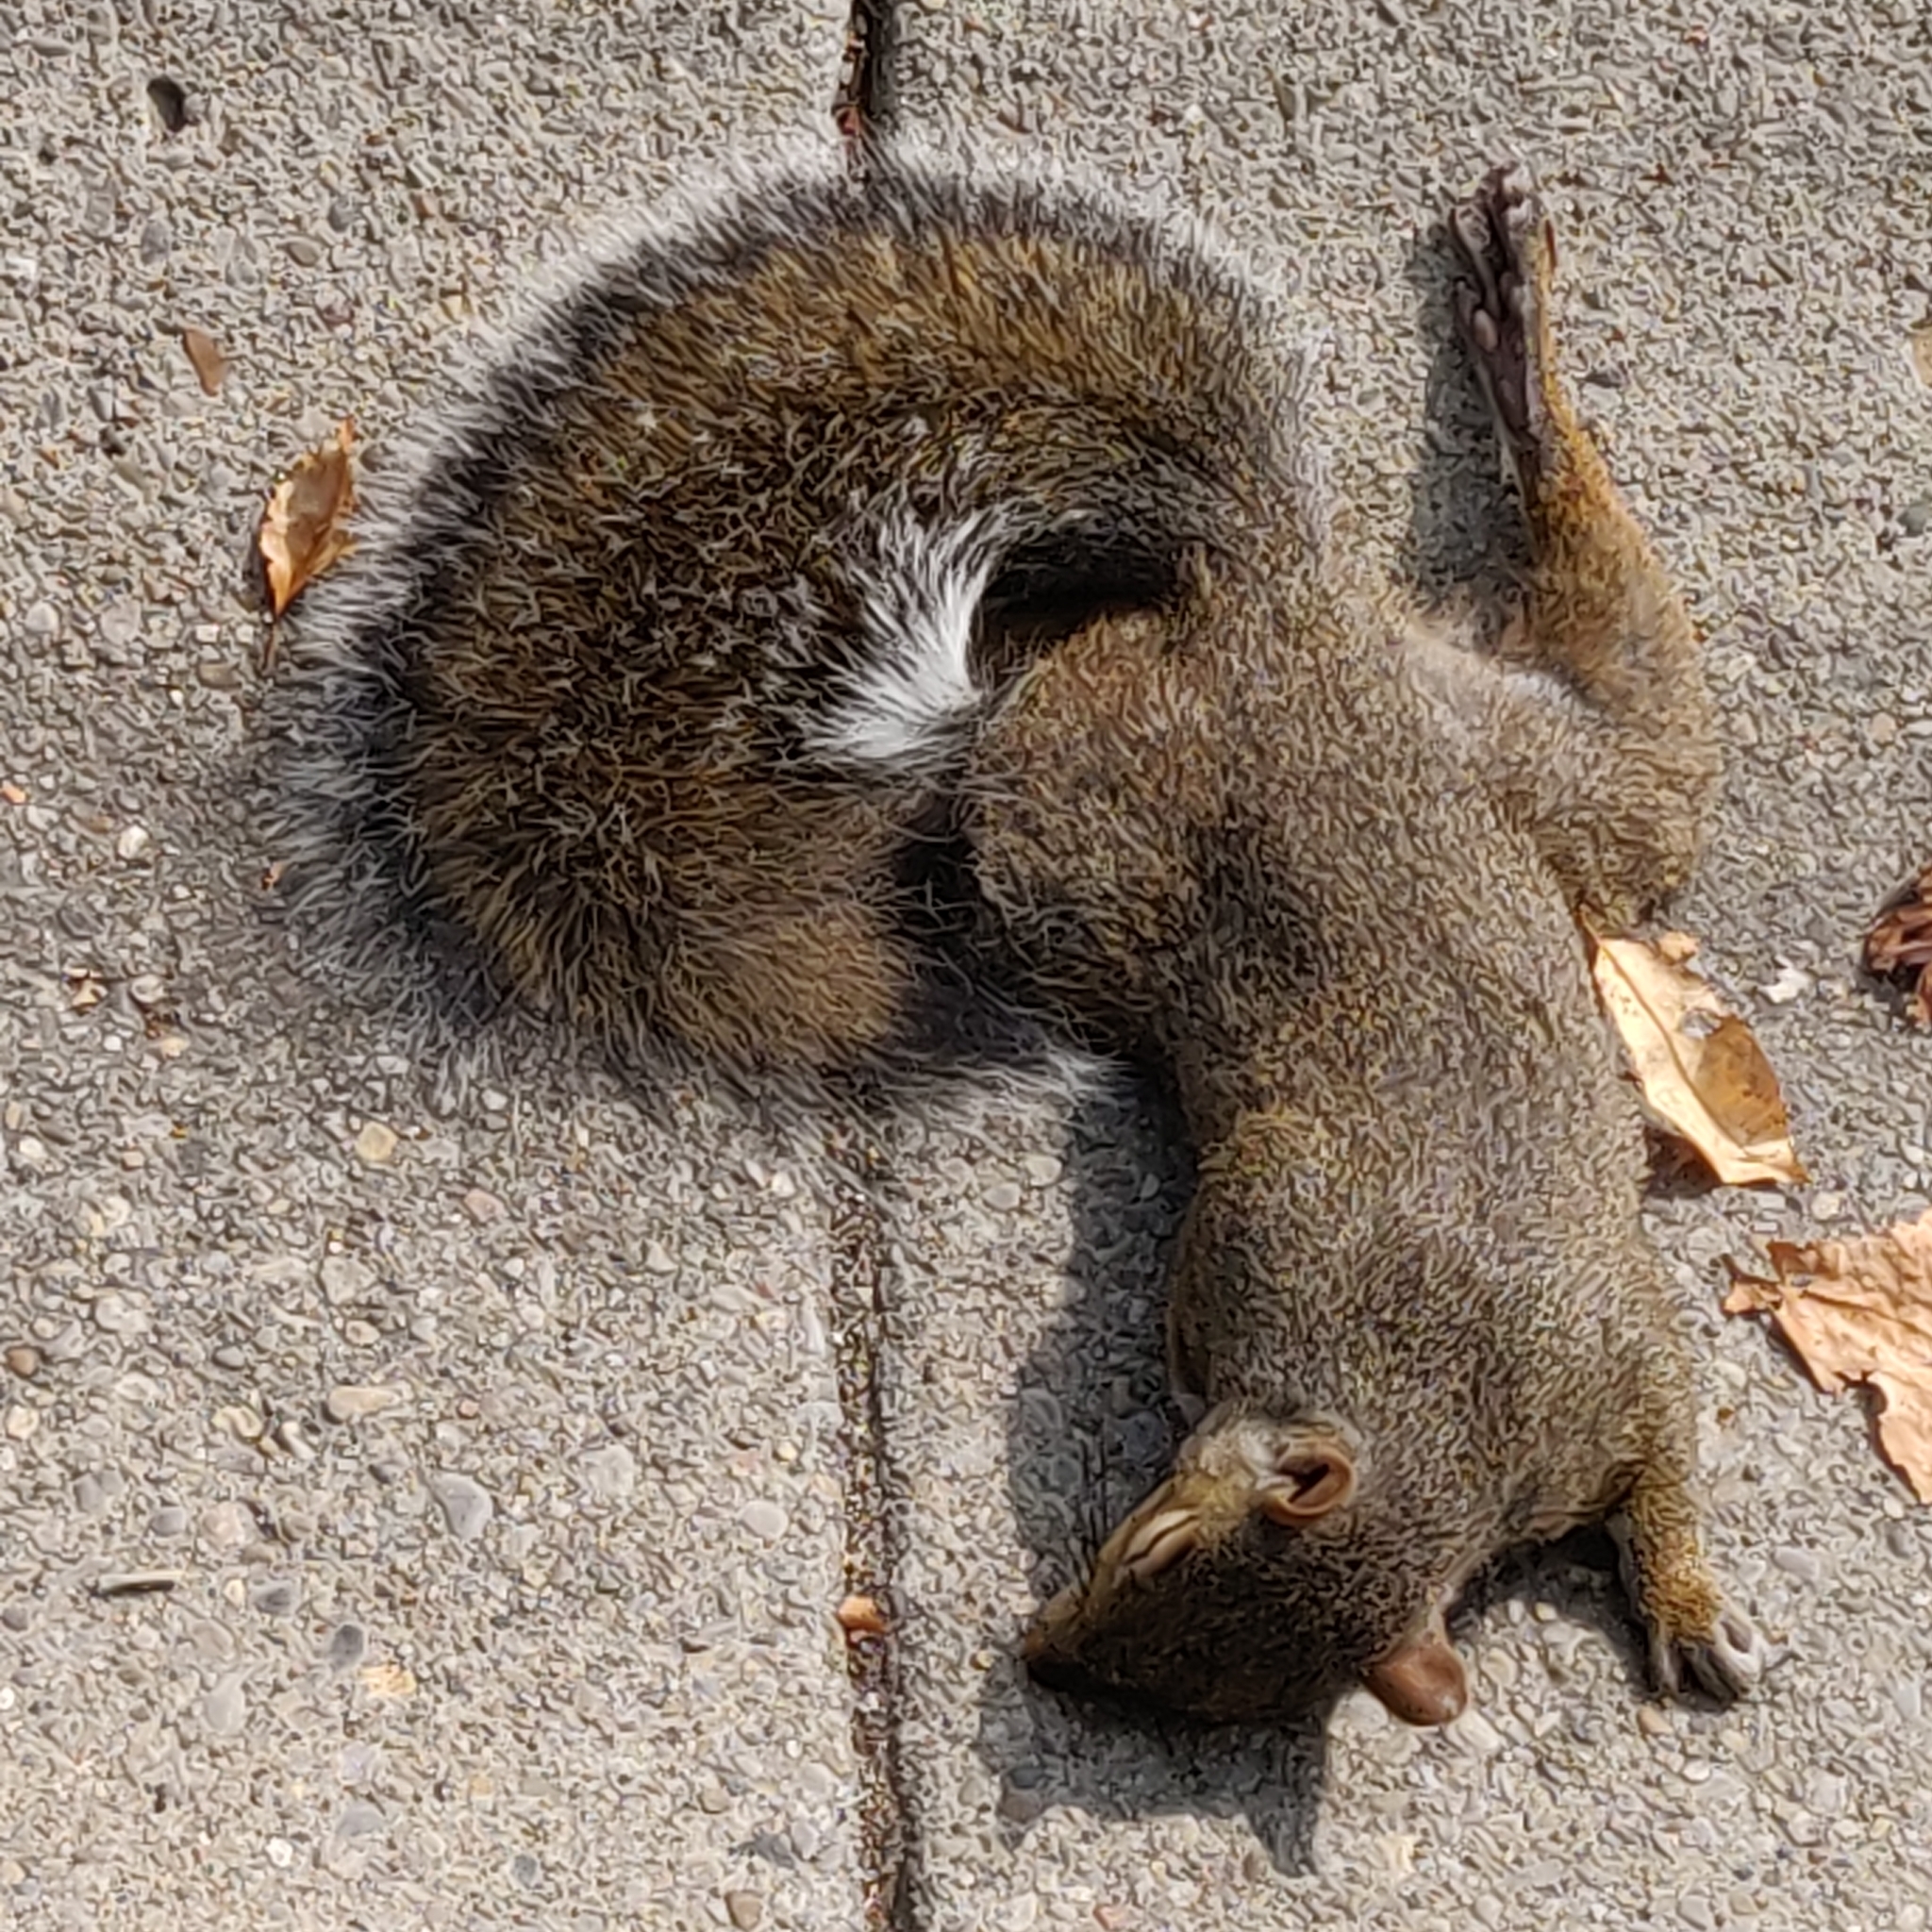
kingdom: Animalia
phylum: Chordata
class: Mammalia
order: Rodentia
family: Sciuridae
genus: Sciurus
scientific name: Sciurus carolinensis
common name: Eastern gray squirrel
